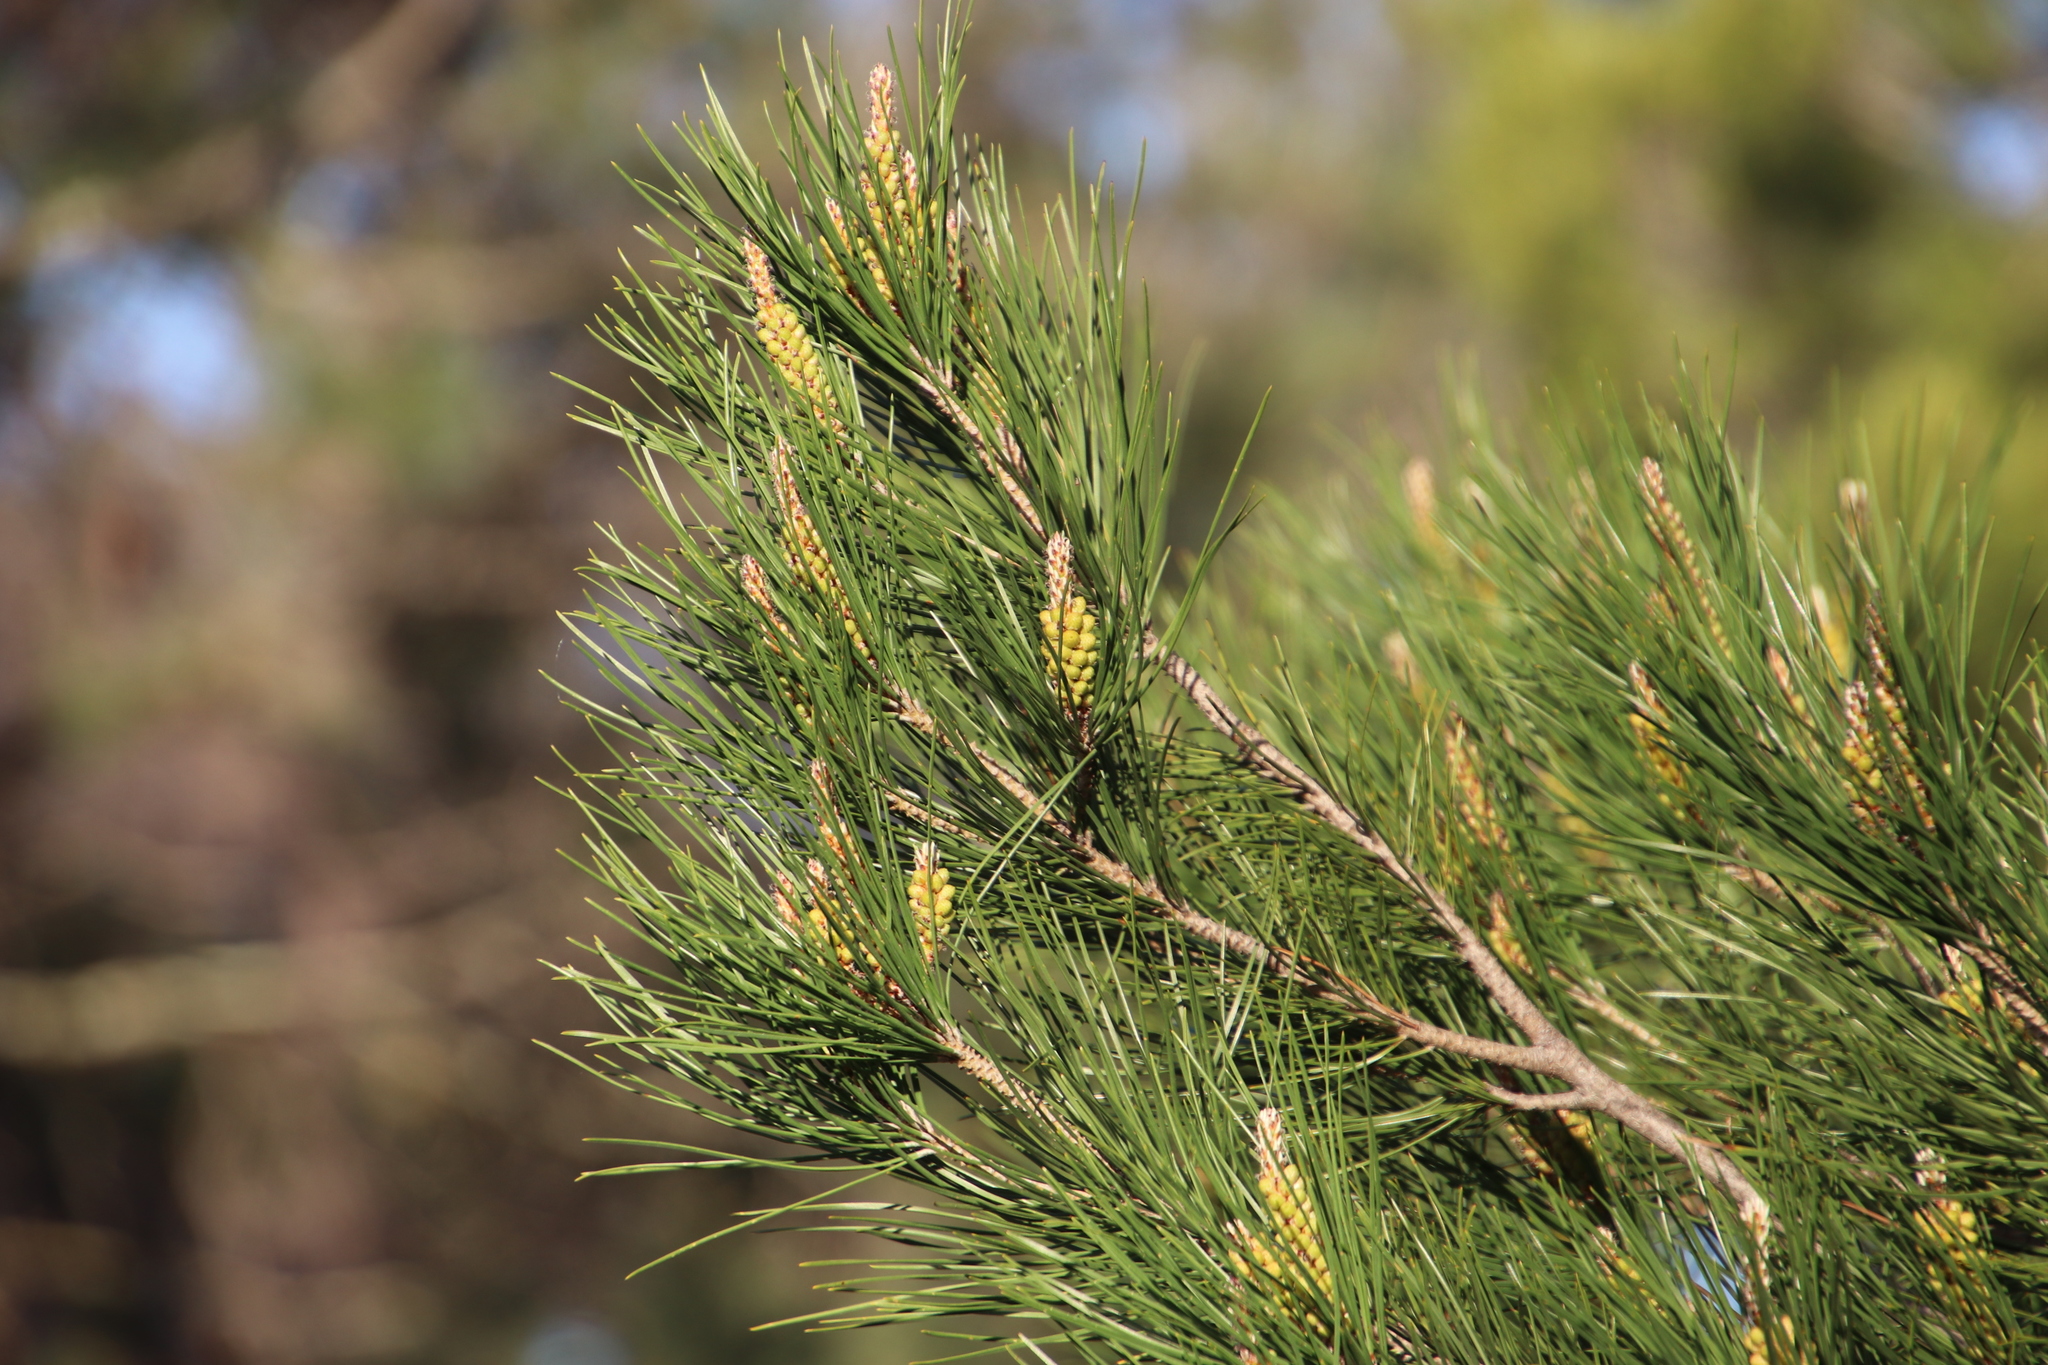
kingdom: Plantae
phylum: Tracheophyta
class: Pinopsida
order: Pinales
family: Pinaceae
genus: Pinus
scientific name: Pinus pinea
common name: Italian stone pine
